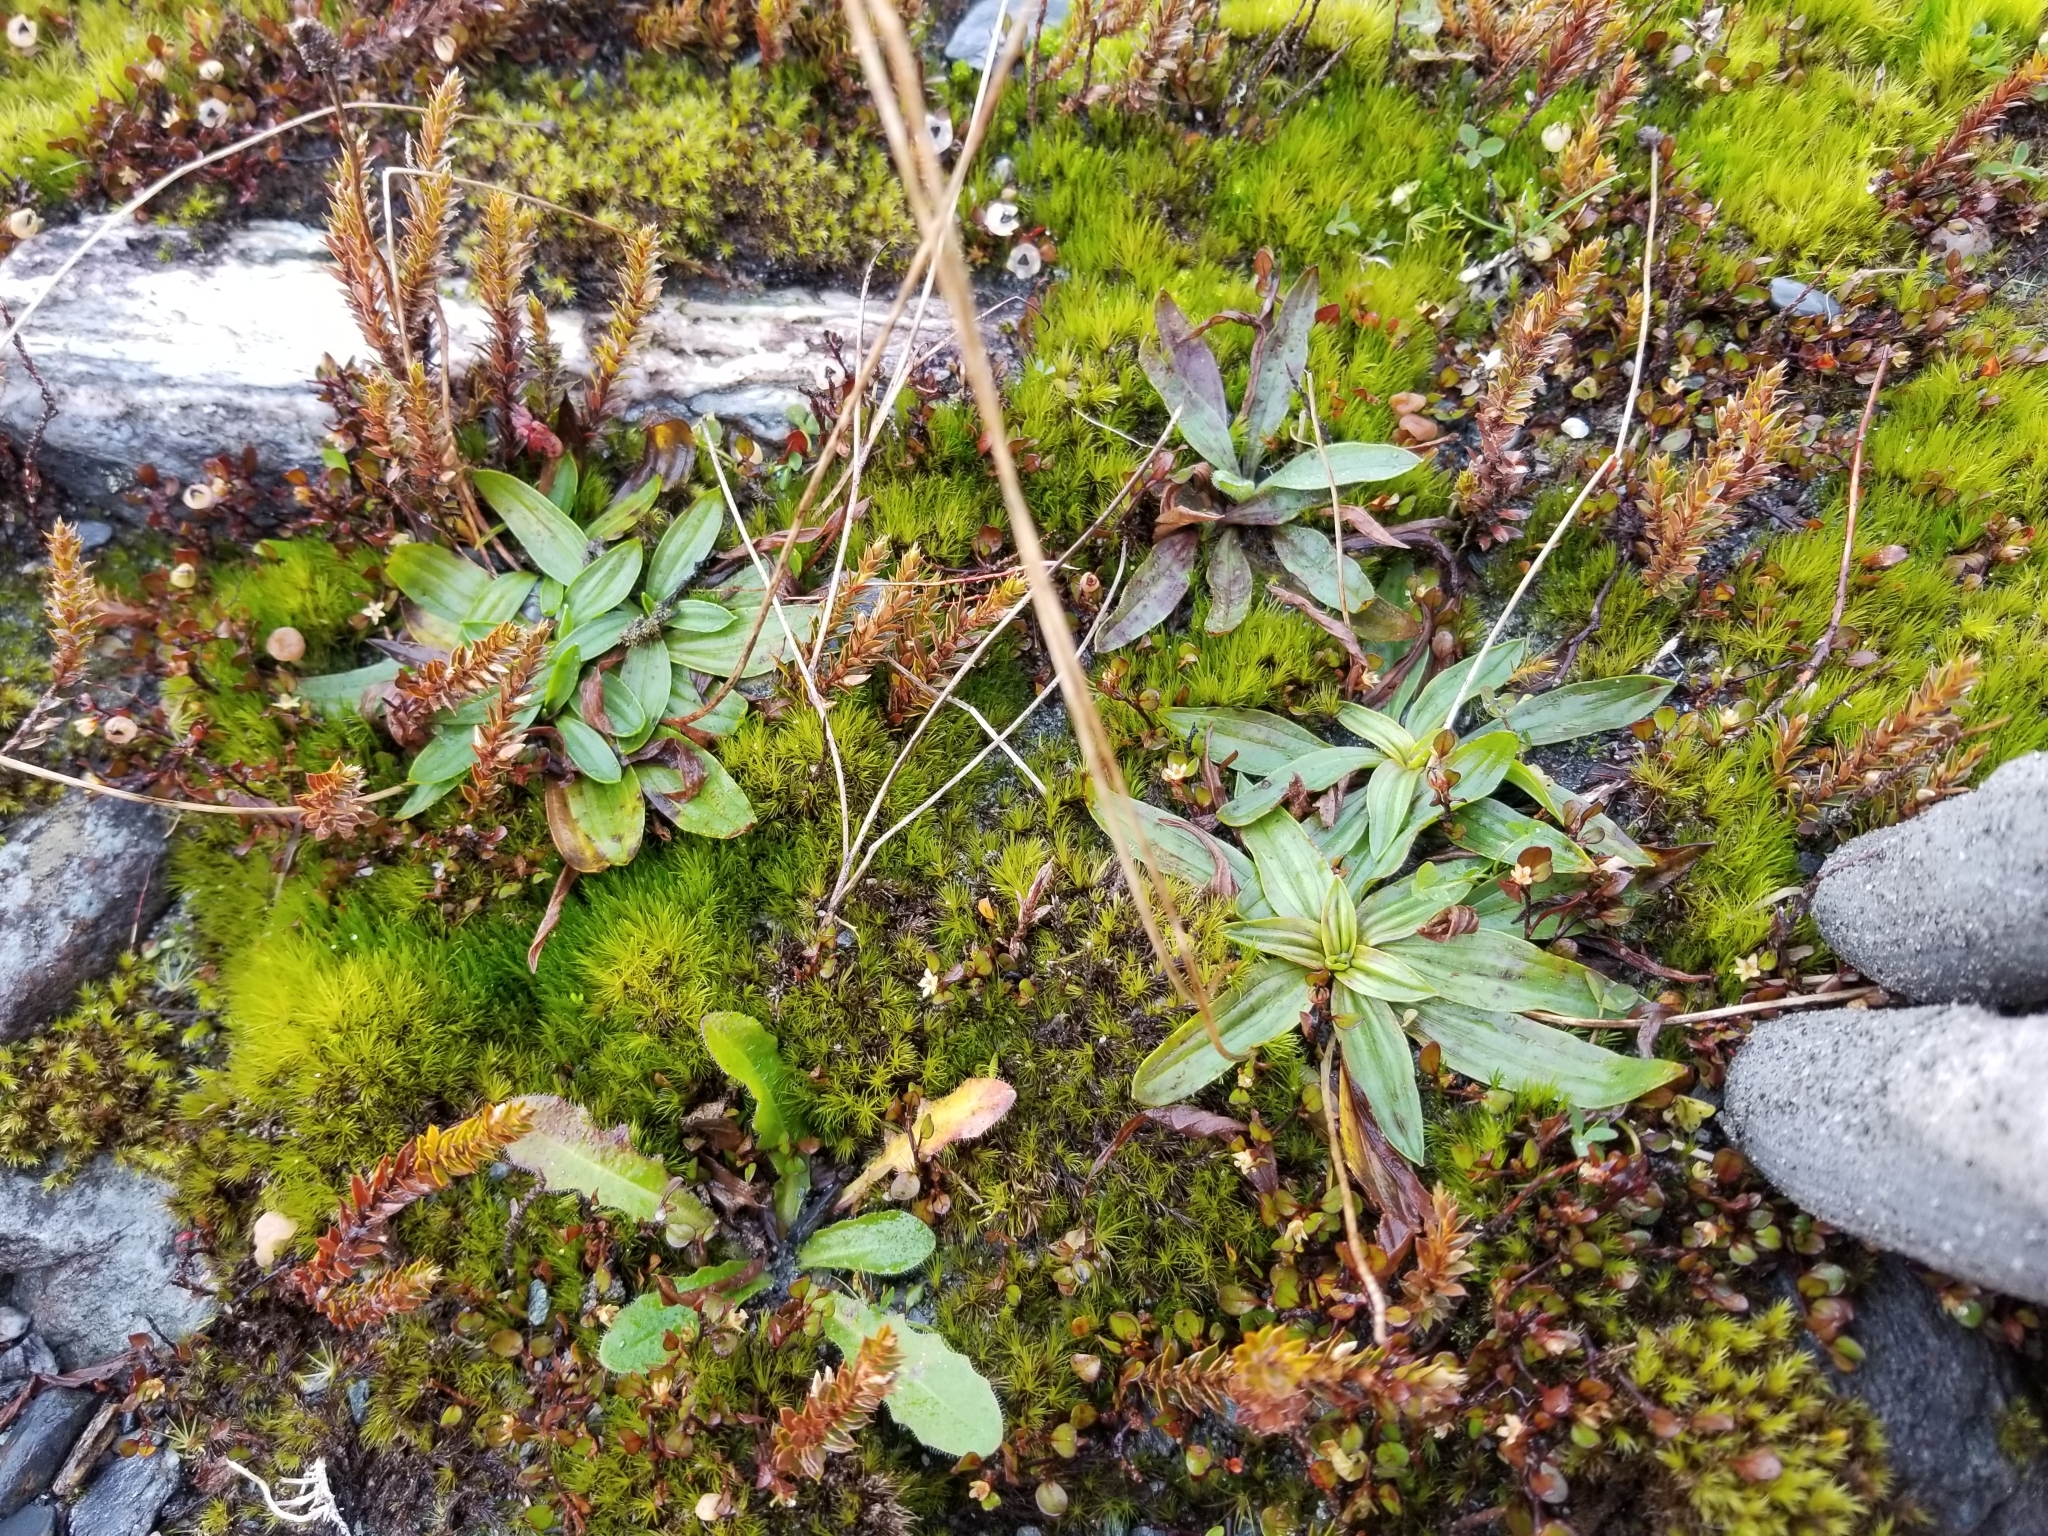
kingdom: Plantae
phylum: Tracheophyta
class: Magnoliopsida
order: Lamiales
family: Plantaginaceae
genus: Plantago
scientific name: Plantago lanceolata
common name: Ribwort plantain
